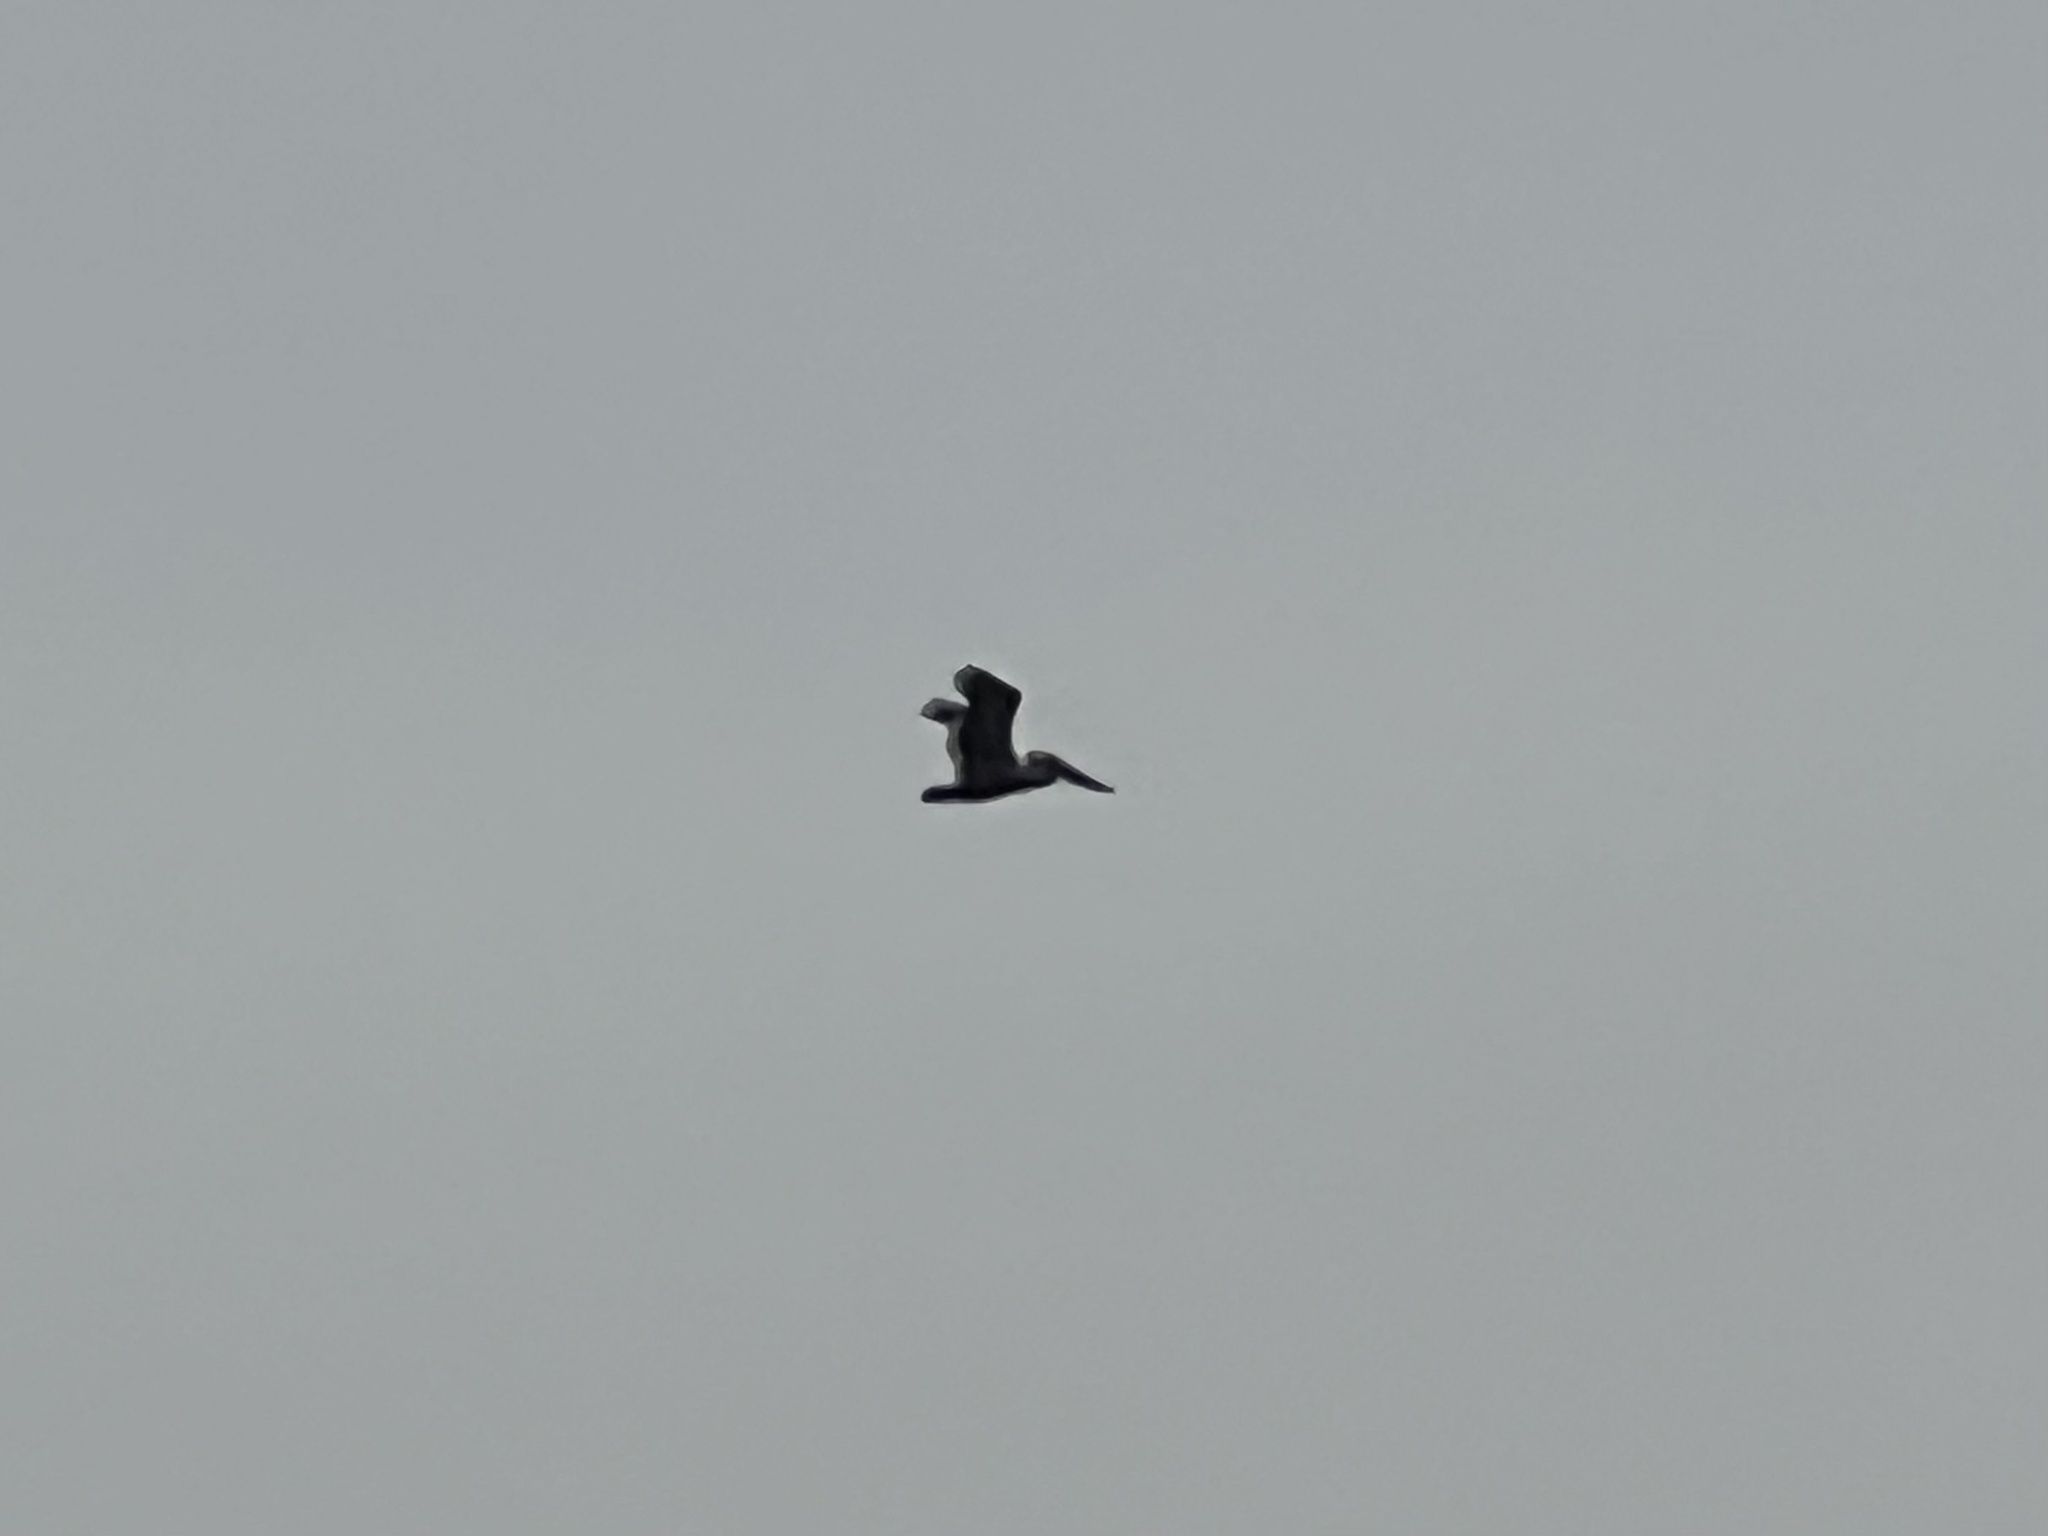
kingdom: Animalia
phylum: Chordata
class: Aves
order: Pelecaniformes
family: Pelecanidae
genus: Pelecanus
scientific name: Pelecanus occidentalis
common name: Brown pelican
